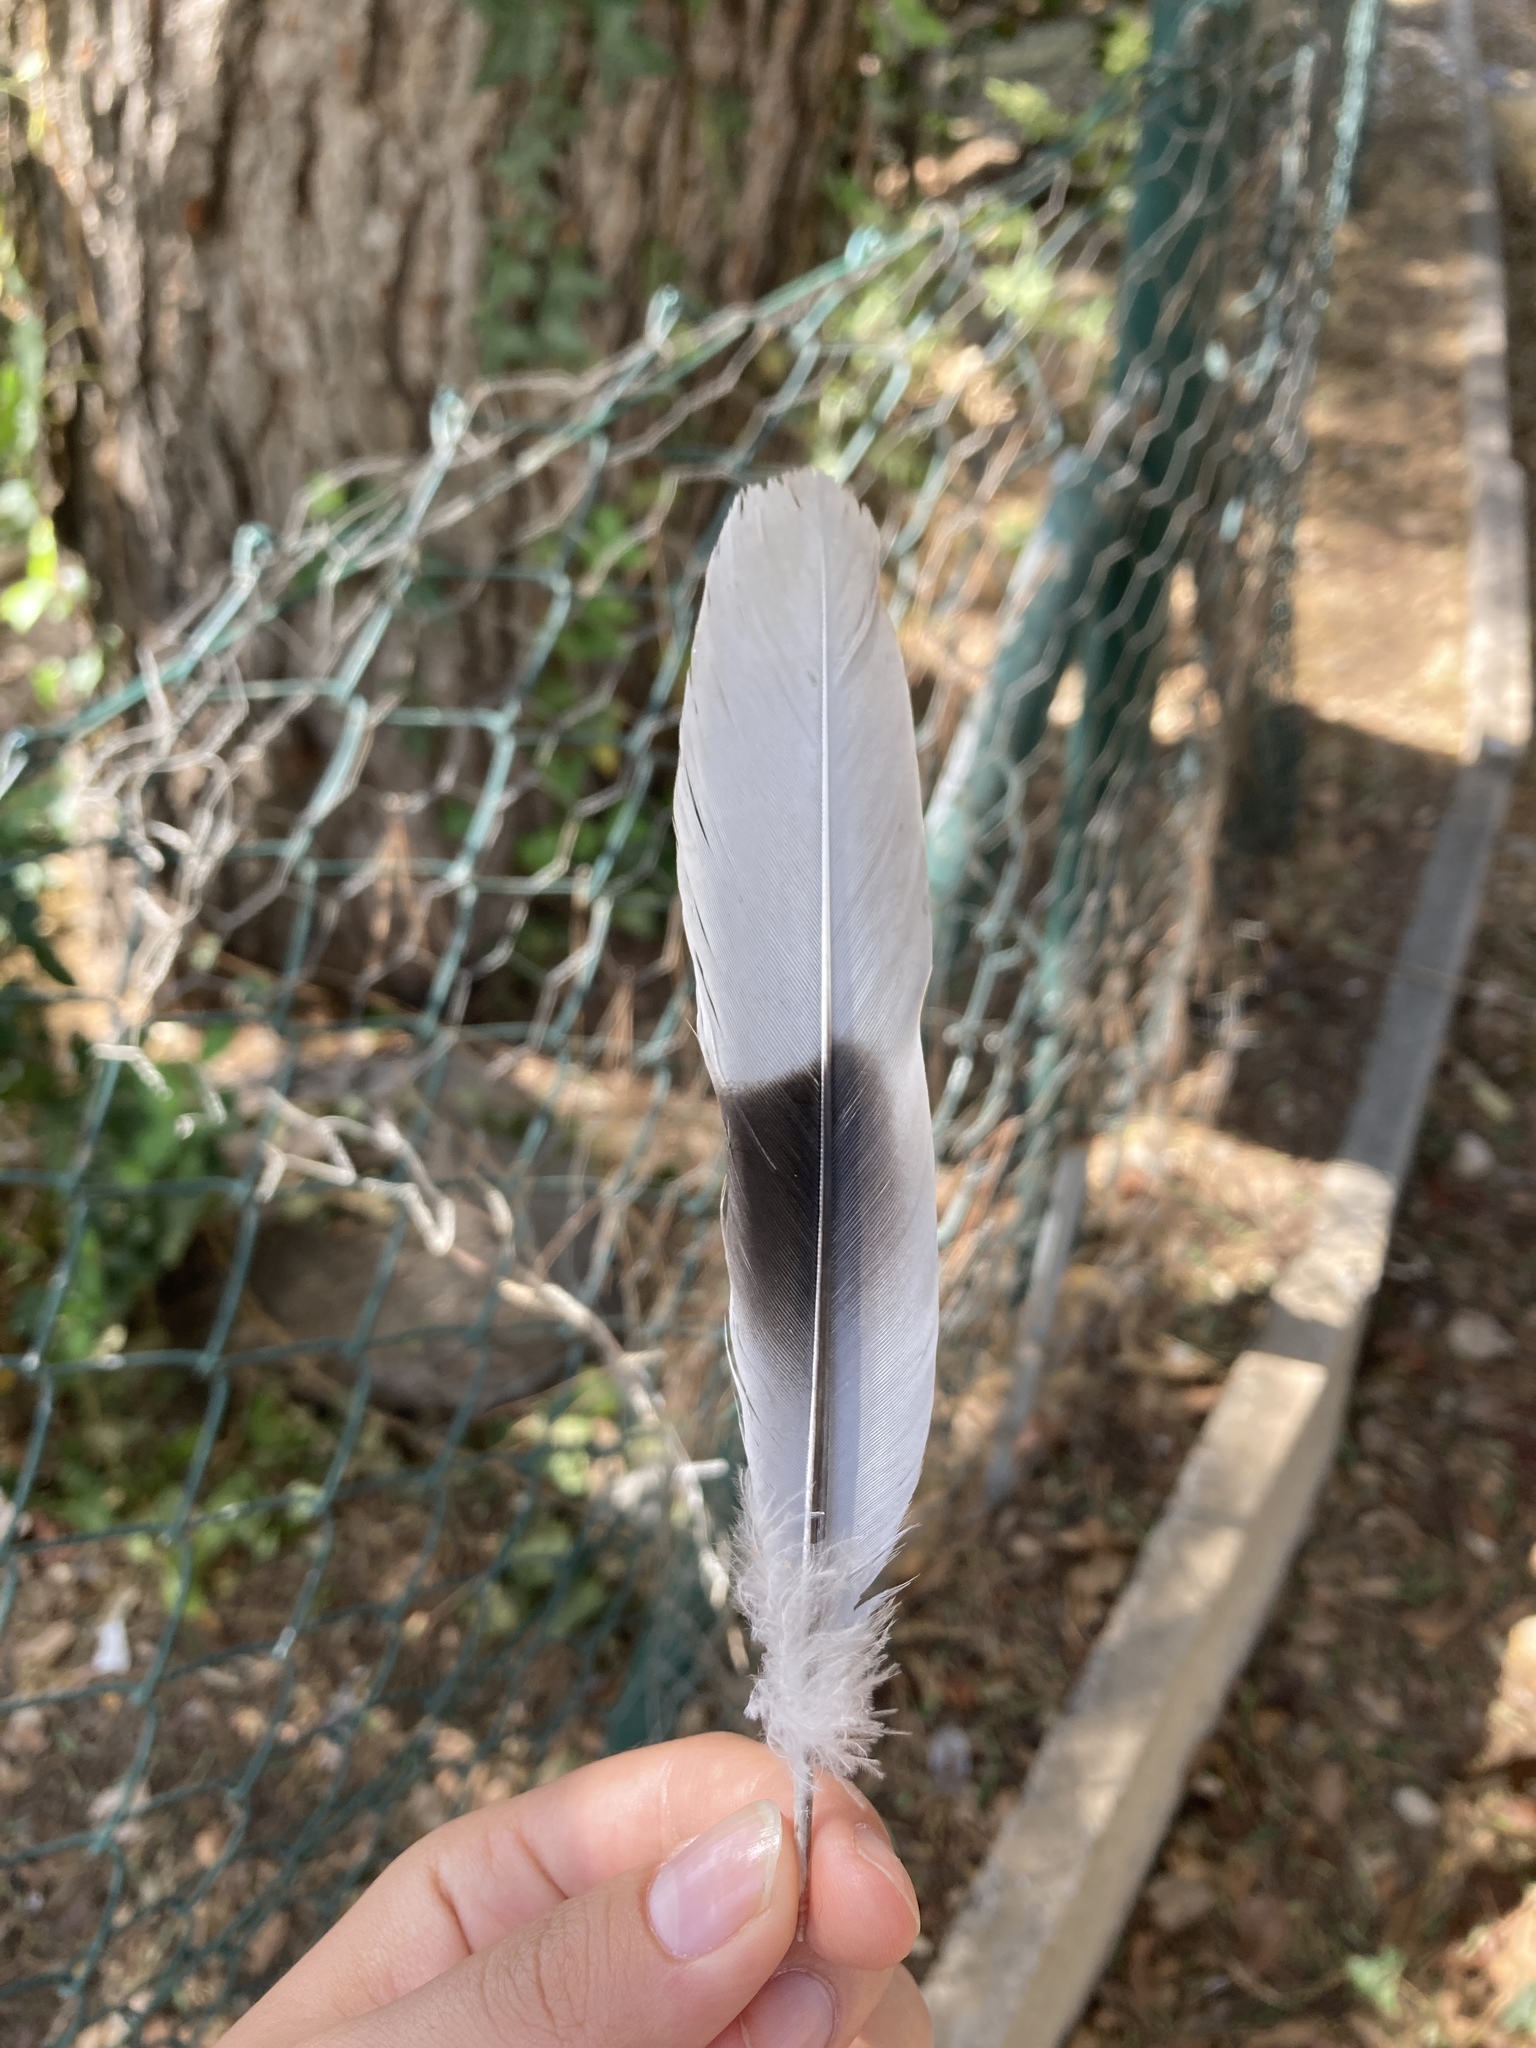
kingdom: Animalia
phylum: Chordata
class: Aves
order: Columbiformes
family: Columbidae
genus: Streptopelia
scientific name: Streptopelia decaocto
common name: Eurasian collared dove
